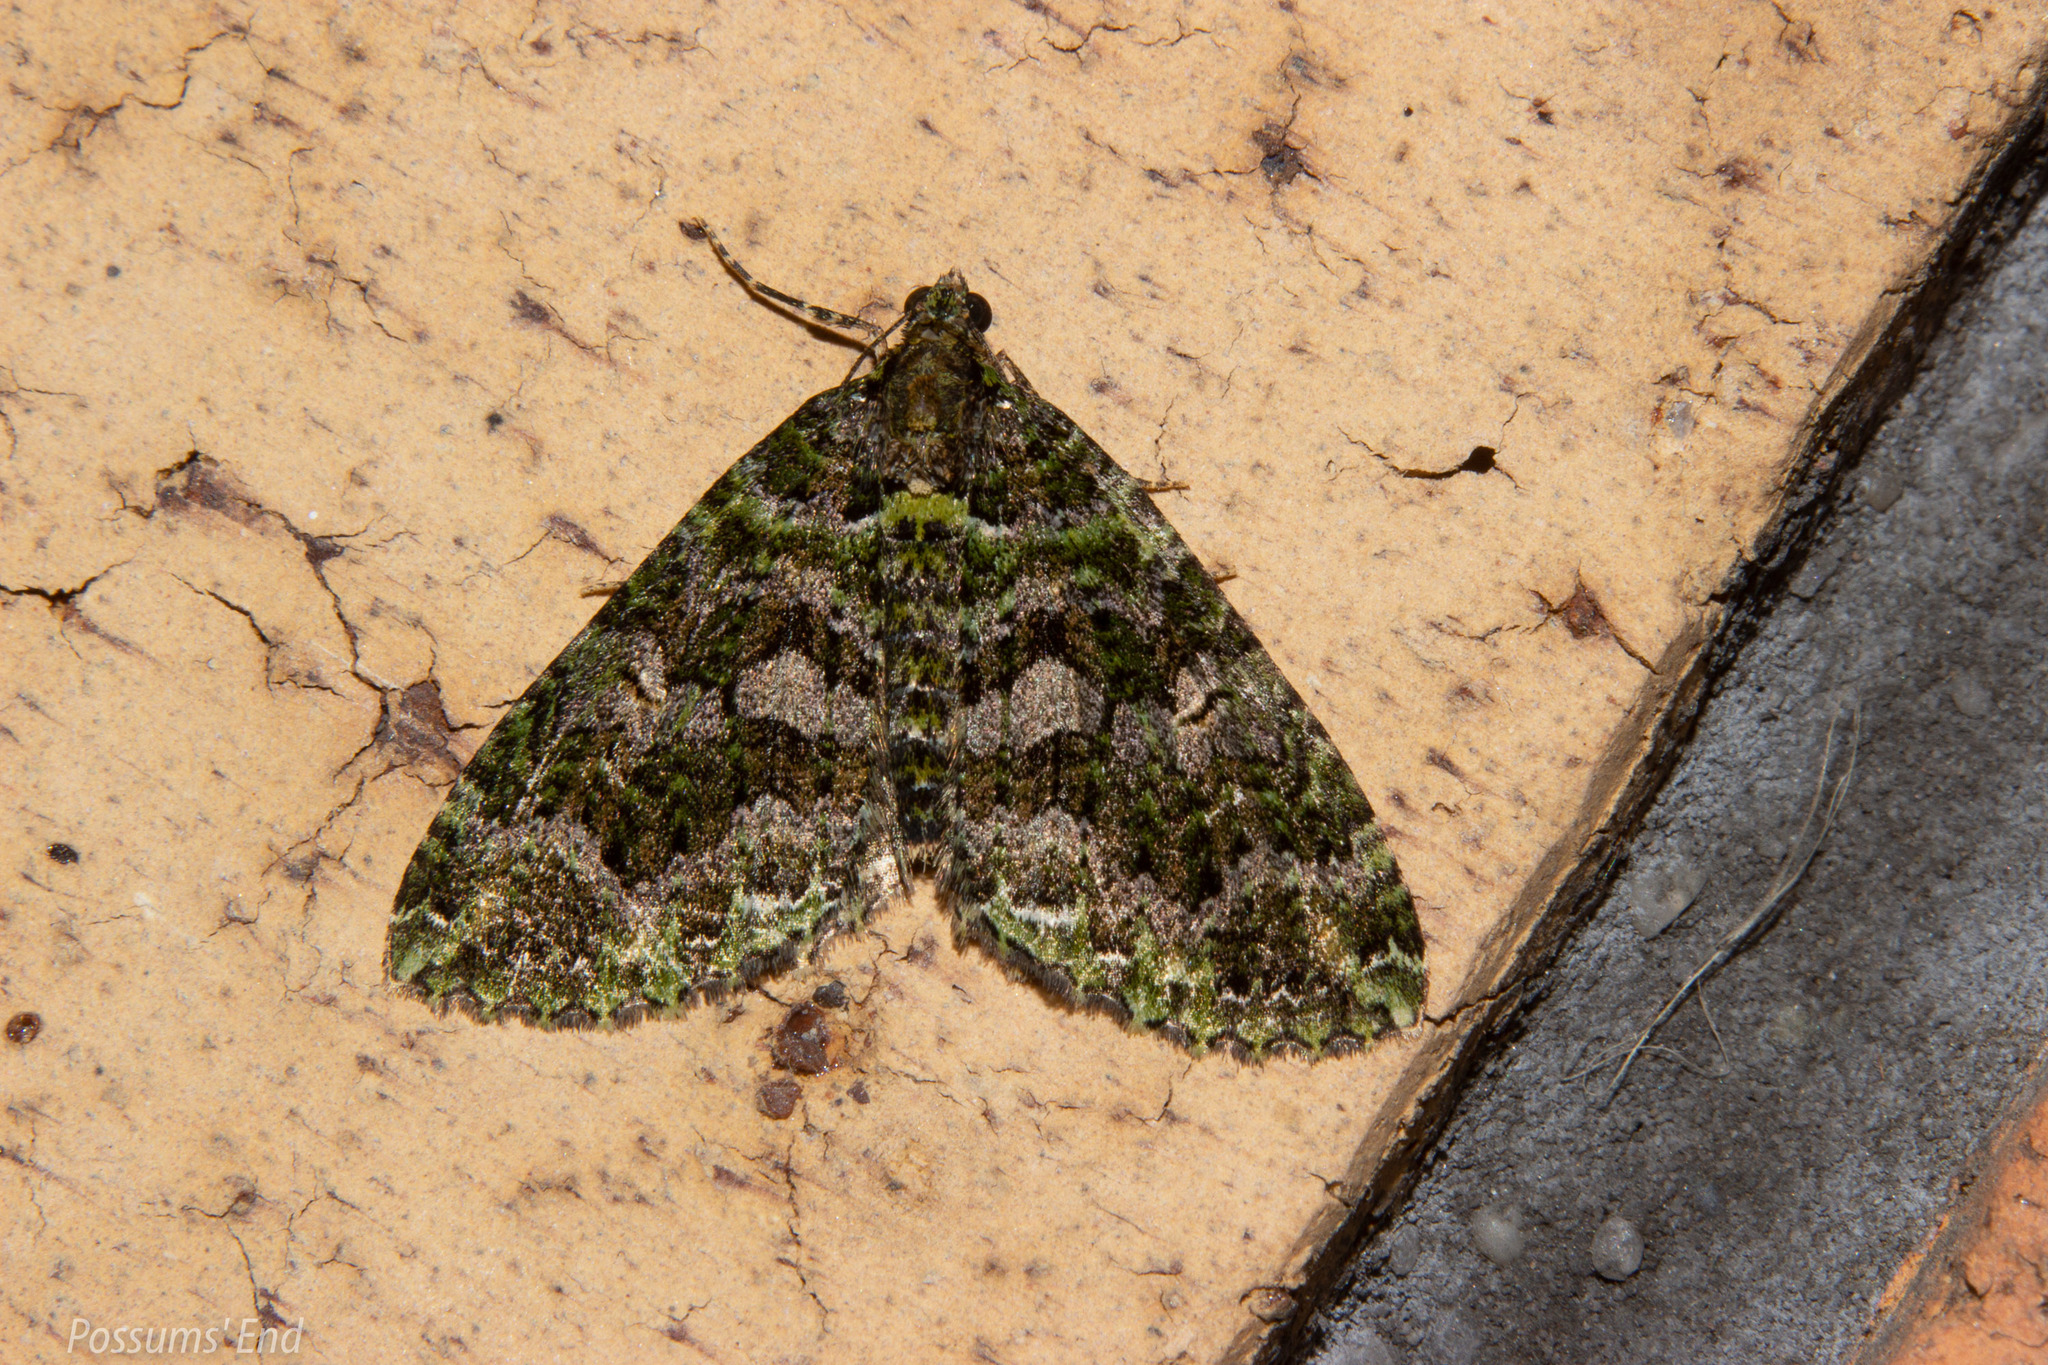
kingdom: Animalia
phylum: Arthropoda
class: Insecta
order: Lepidoptera
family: Geometridae
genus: Austrocidaria
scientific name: Austrocidaria similata
